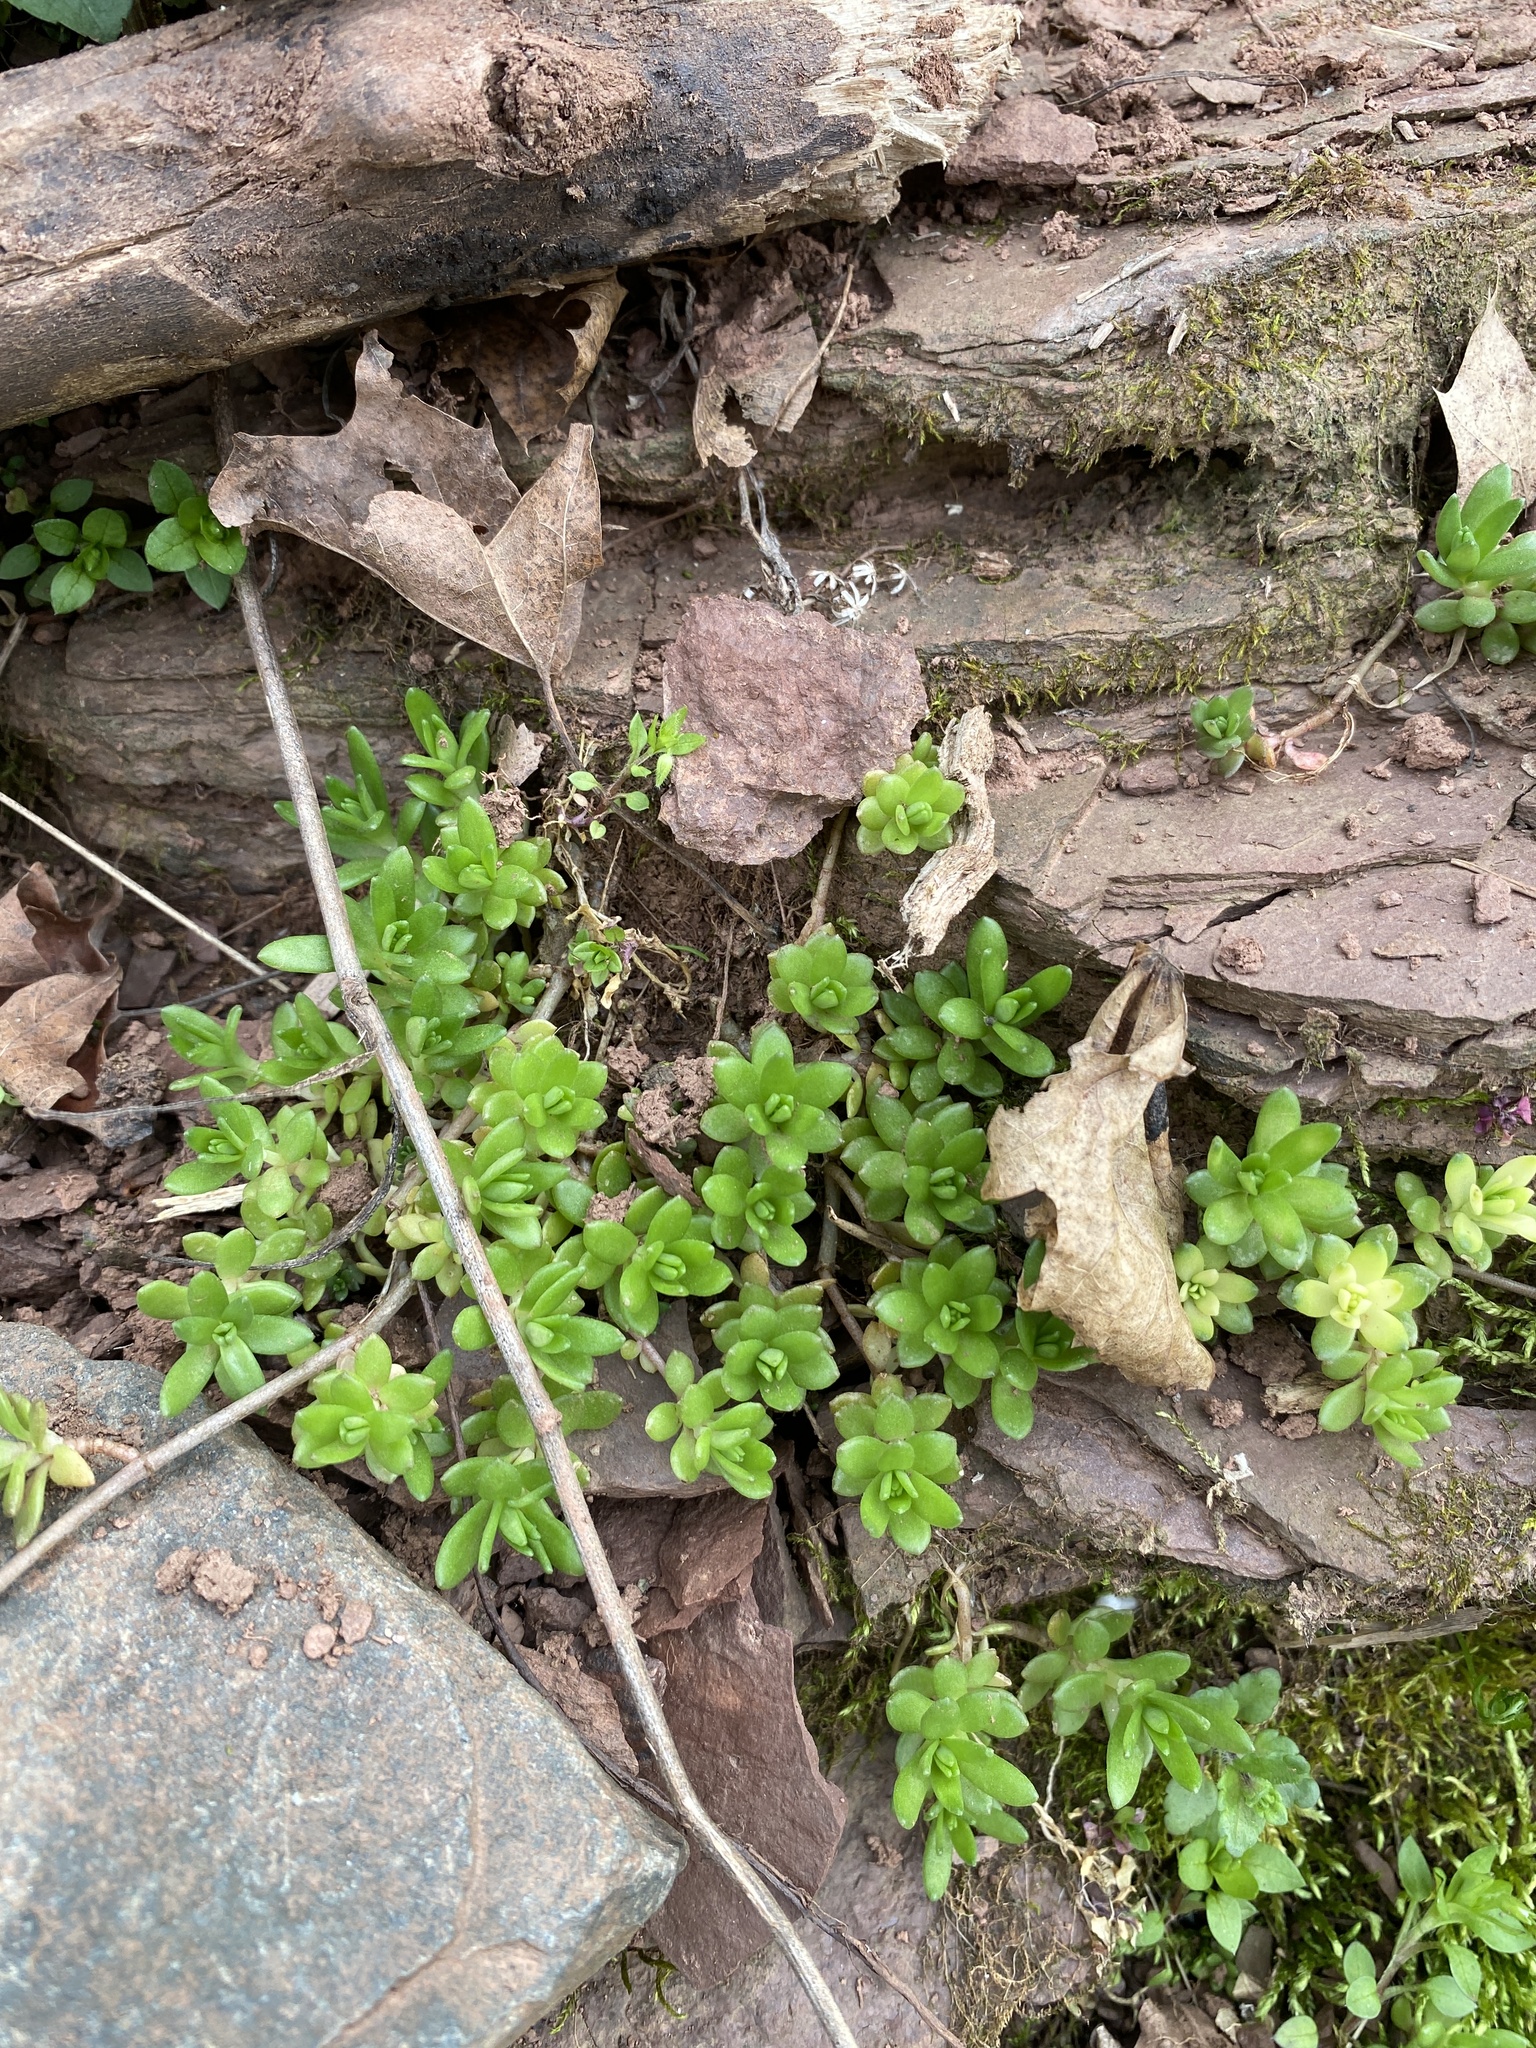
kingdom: Plantae
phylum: Tracheophyta
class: Magnoliopsida
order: Saxifragales
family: Crassulaceae
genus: Sedum
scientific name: Sedum sarmentosum
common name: Stringy stonecrop
